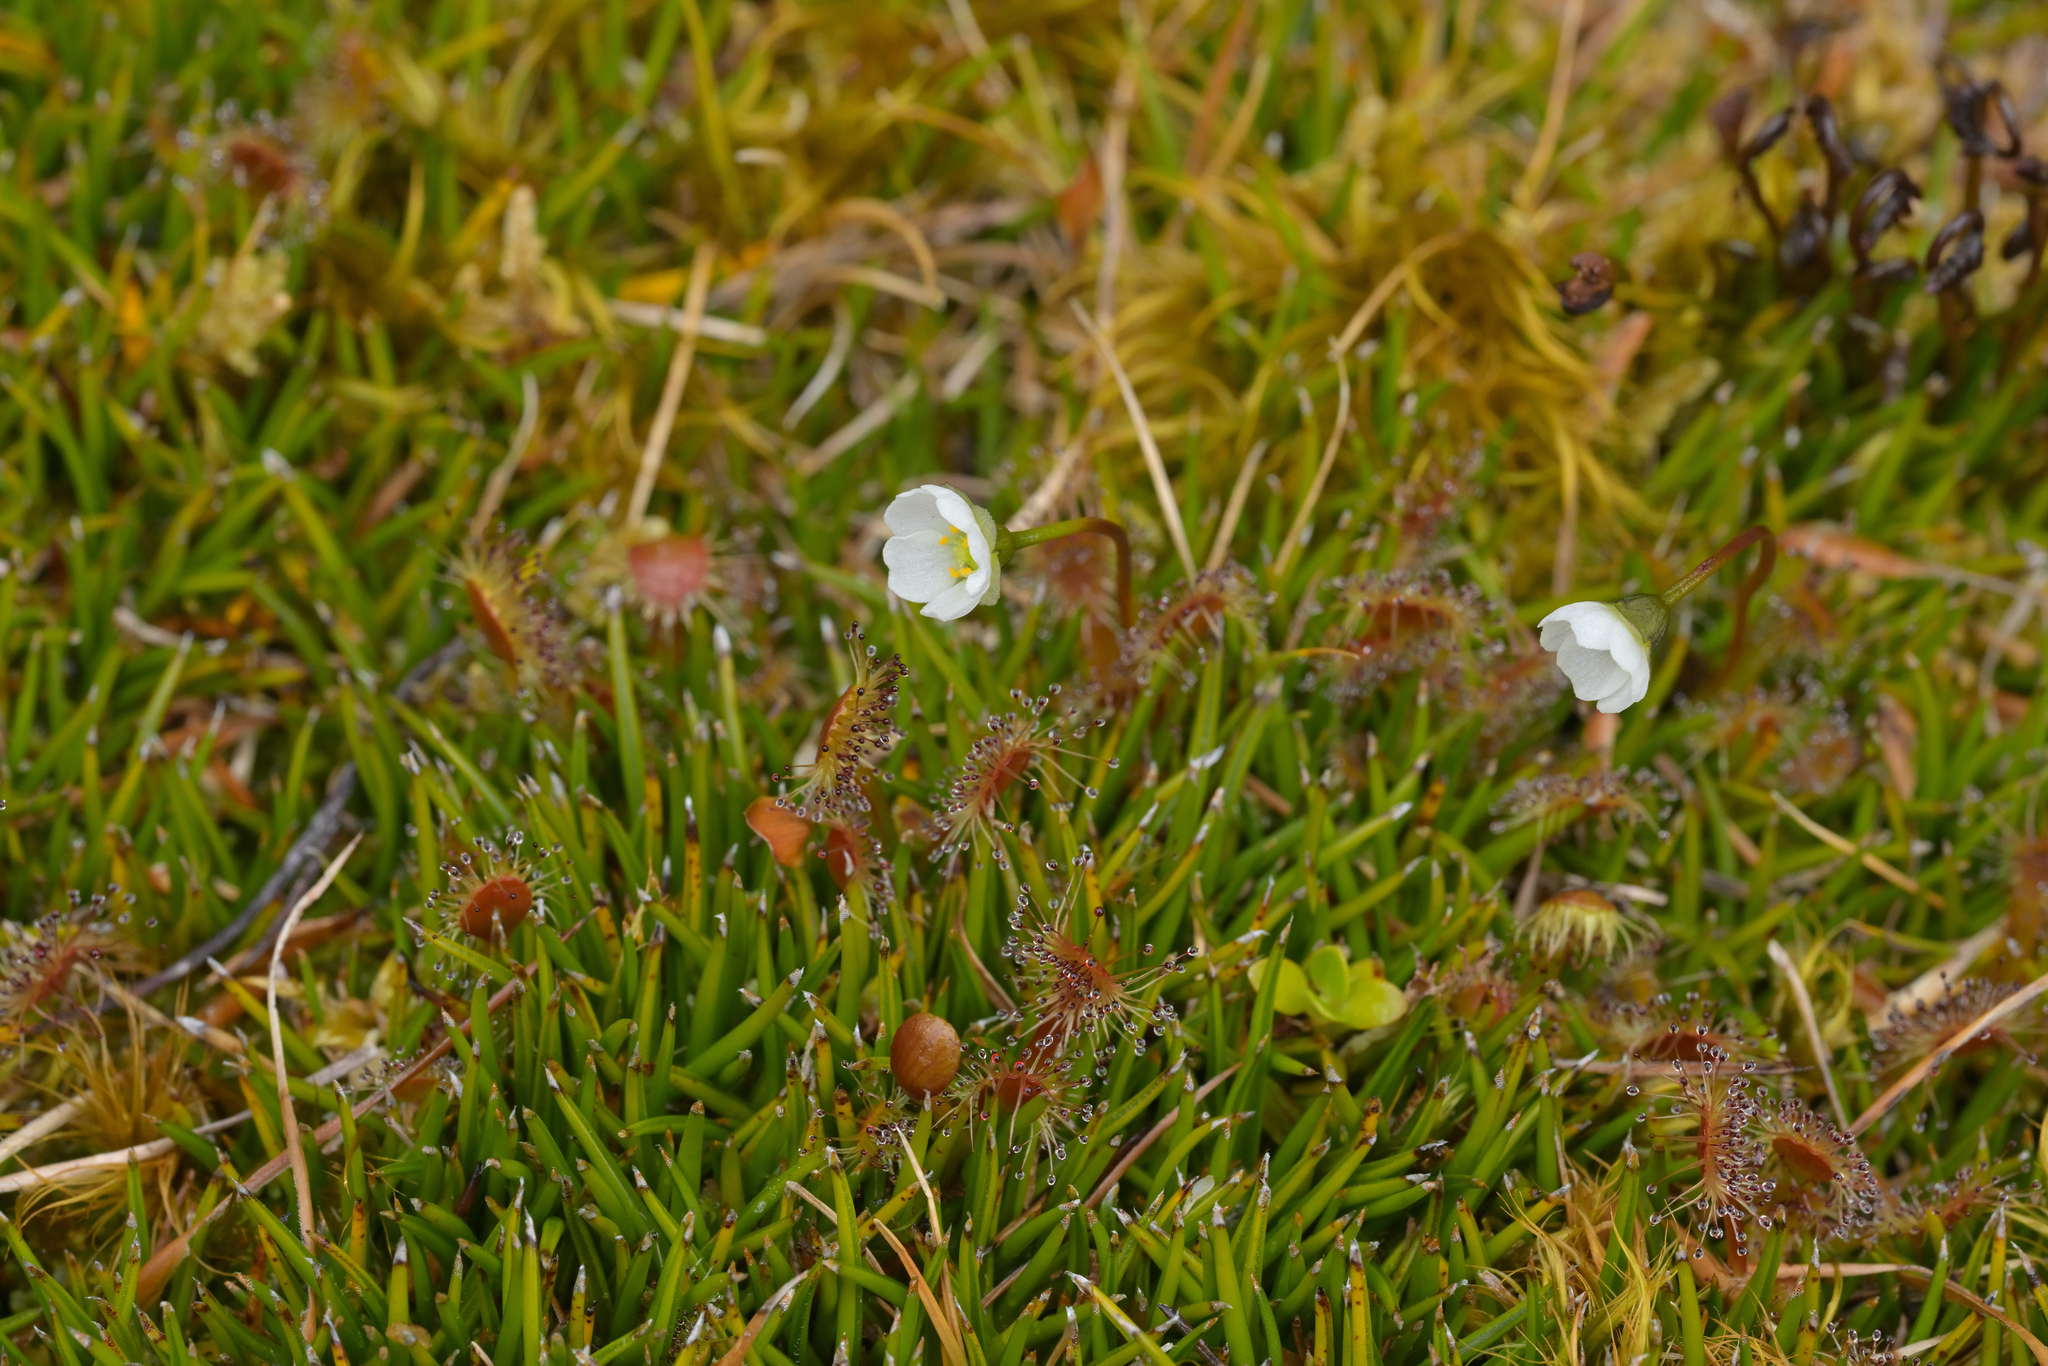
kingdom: Plantae
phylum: Tracheophyta
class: Magnoliopsida
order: Caryophyllales
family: Droseraceae
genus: Drosera
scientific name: Drosera stenopetala
